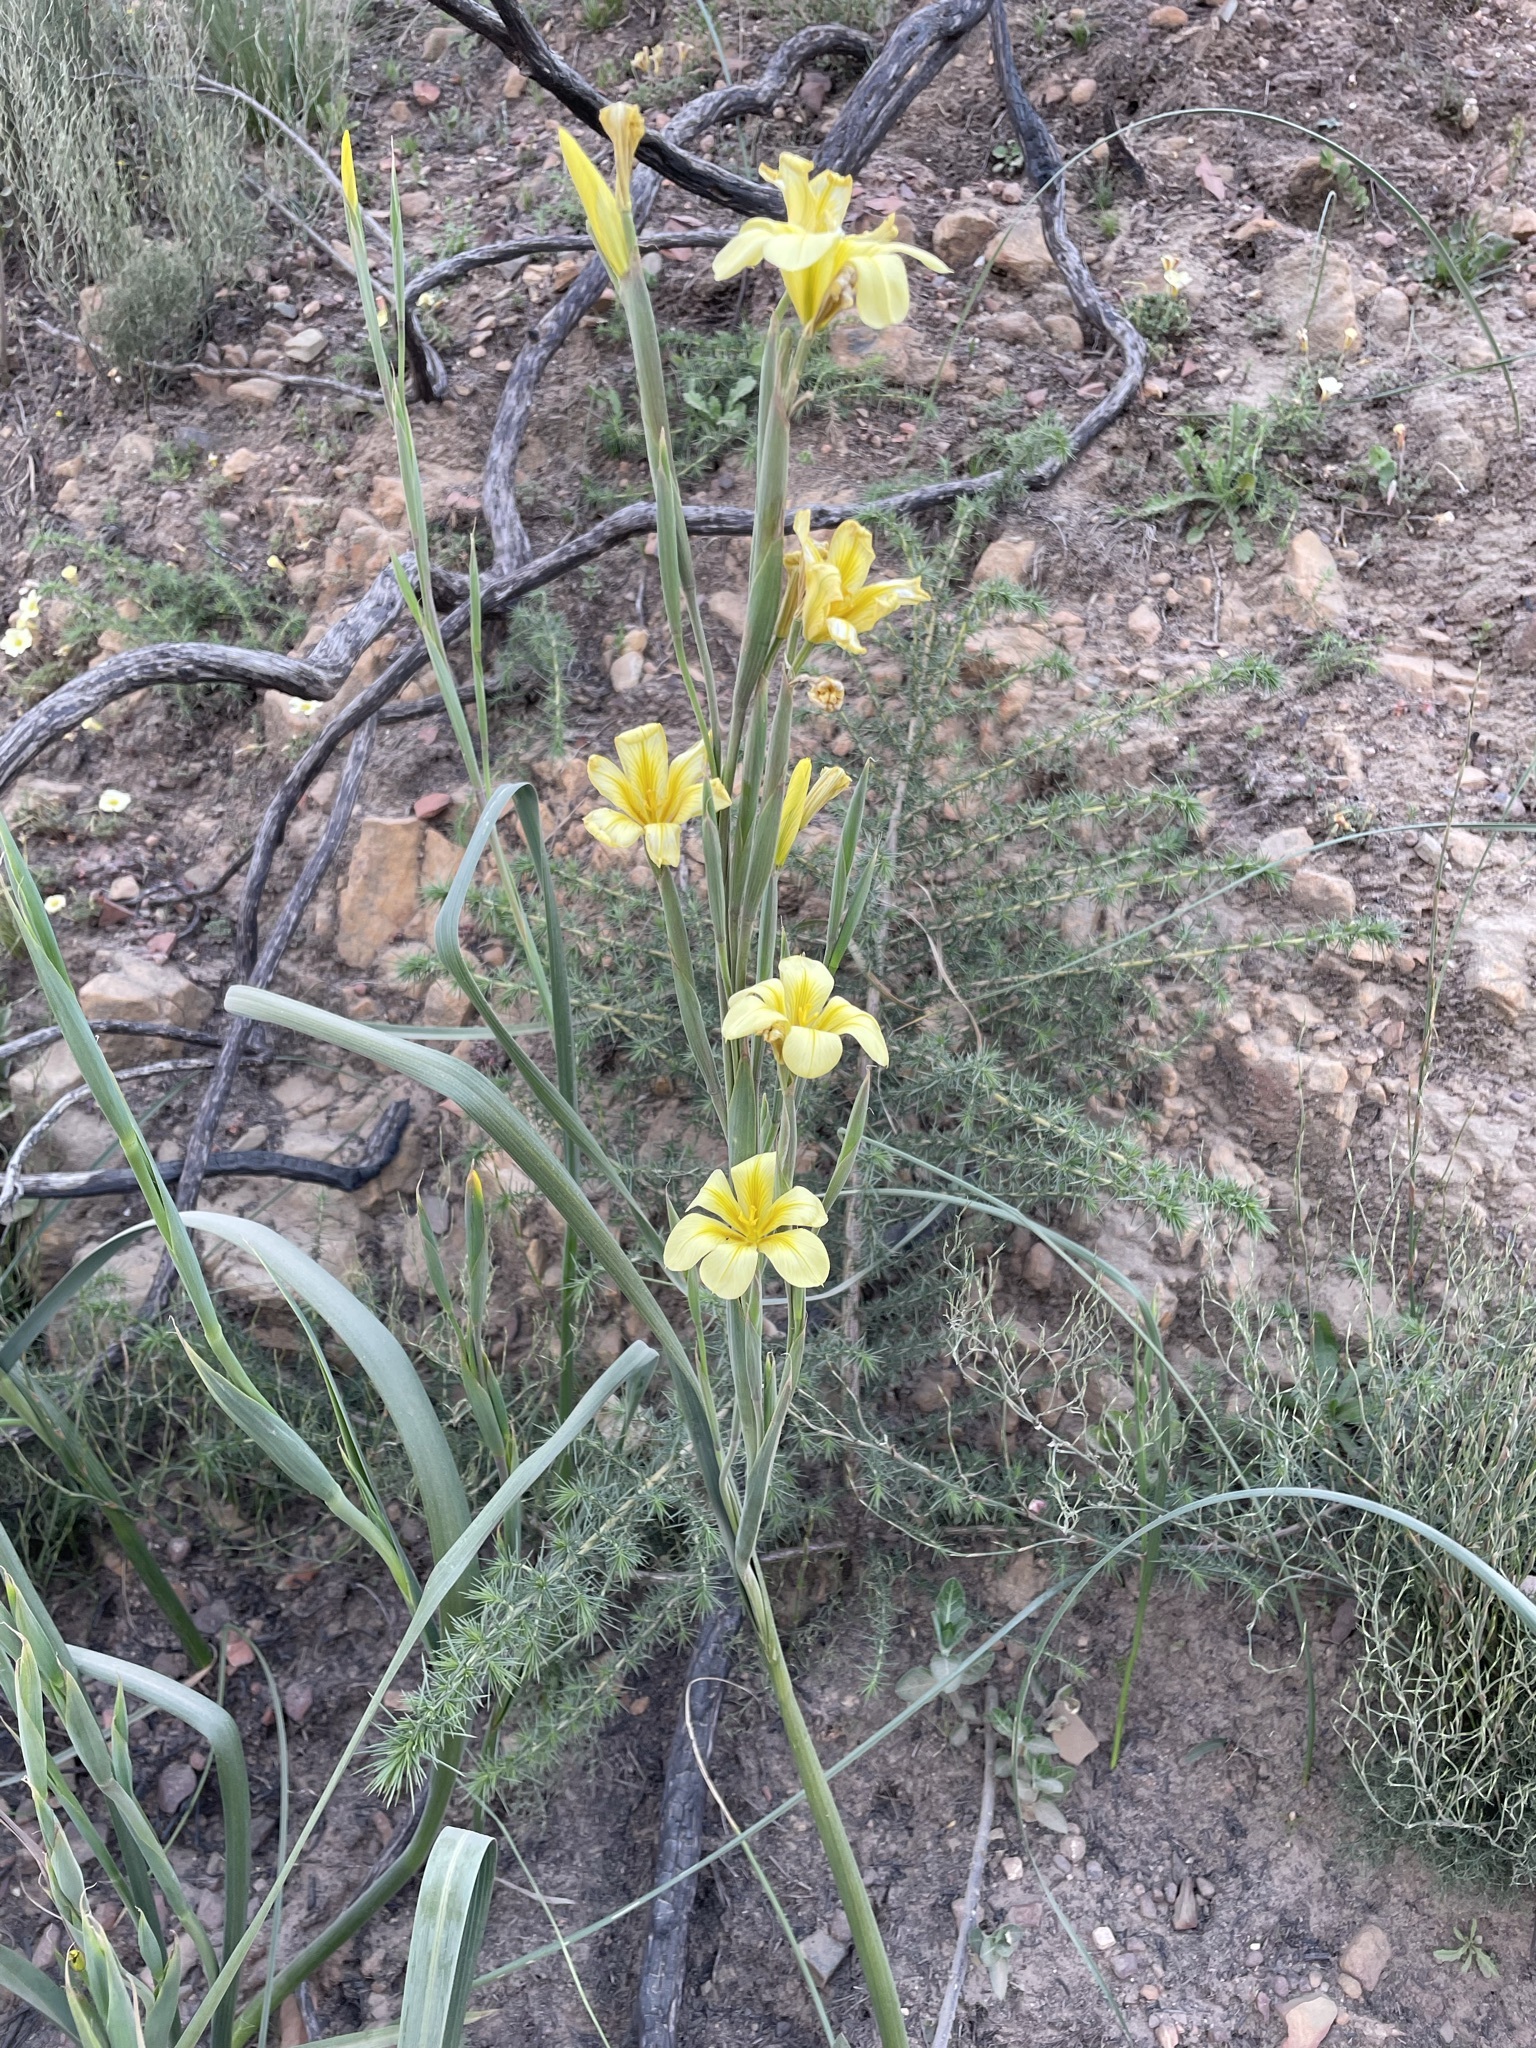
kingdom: Plantae
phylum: Tracheophyta
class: Liliopsida
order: Asparagales
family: Iridaceae
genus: Moraea
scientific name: Moraea ochroleuca
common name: Red tulp
